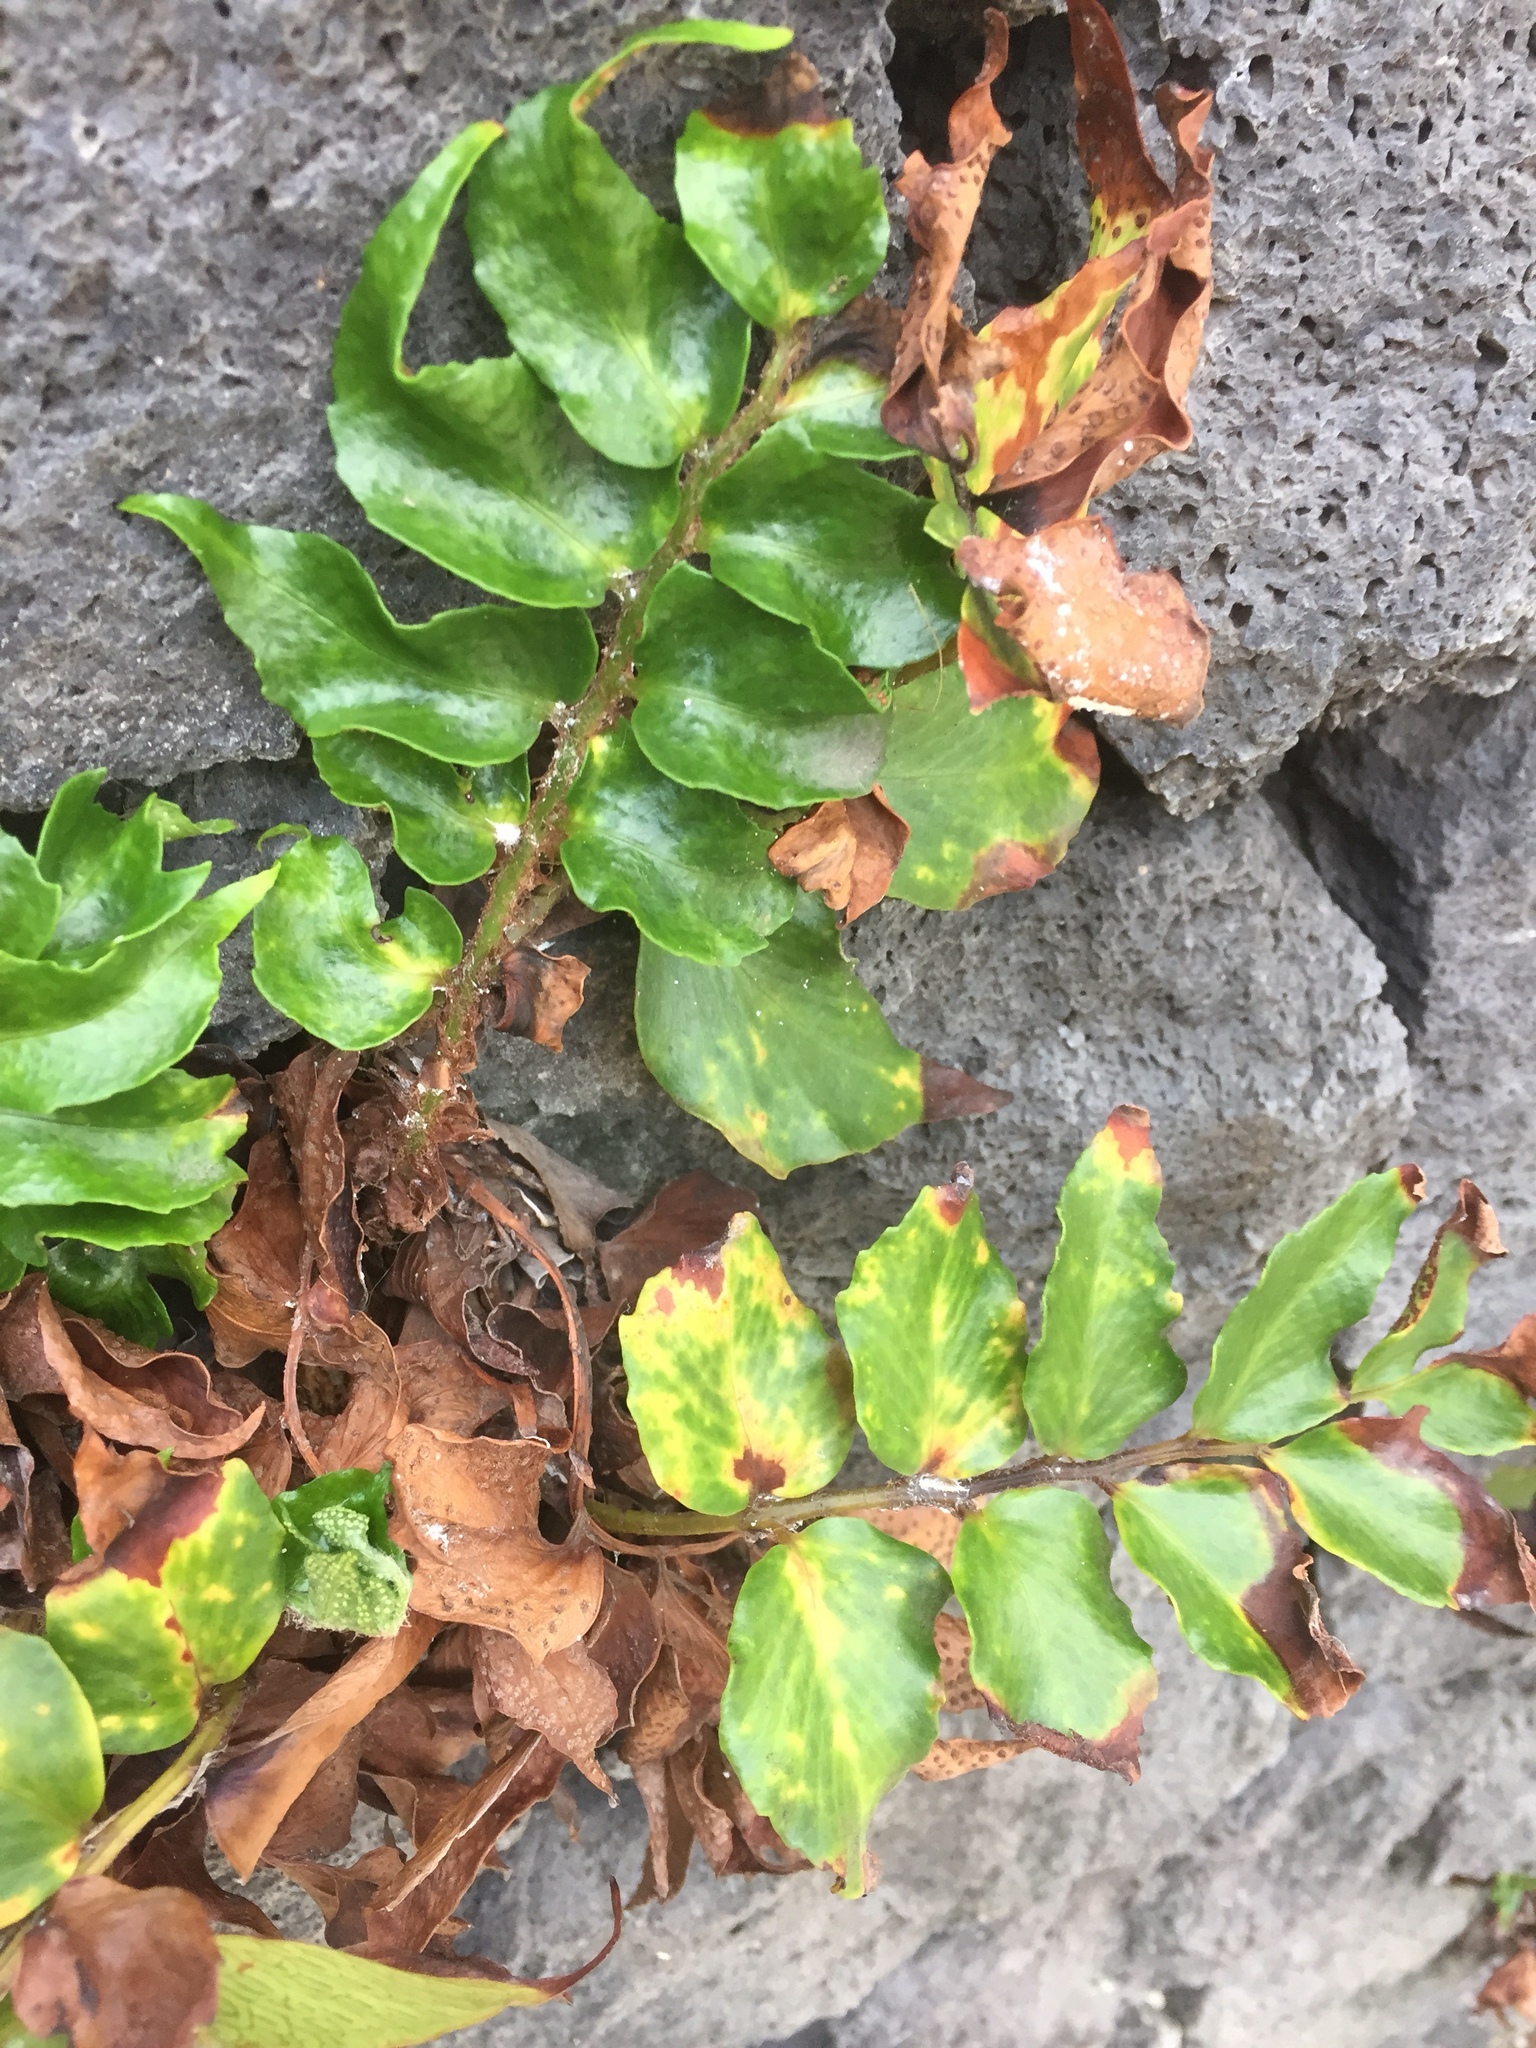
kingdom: Plantae
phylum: Tracheophyta
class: Polypodiopsida
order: Polypodiales
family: Dryopteridaceae
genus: Cyrtomium
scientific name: Cyrtomium falcatum
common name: House holly-fern
